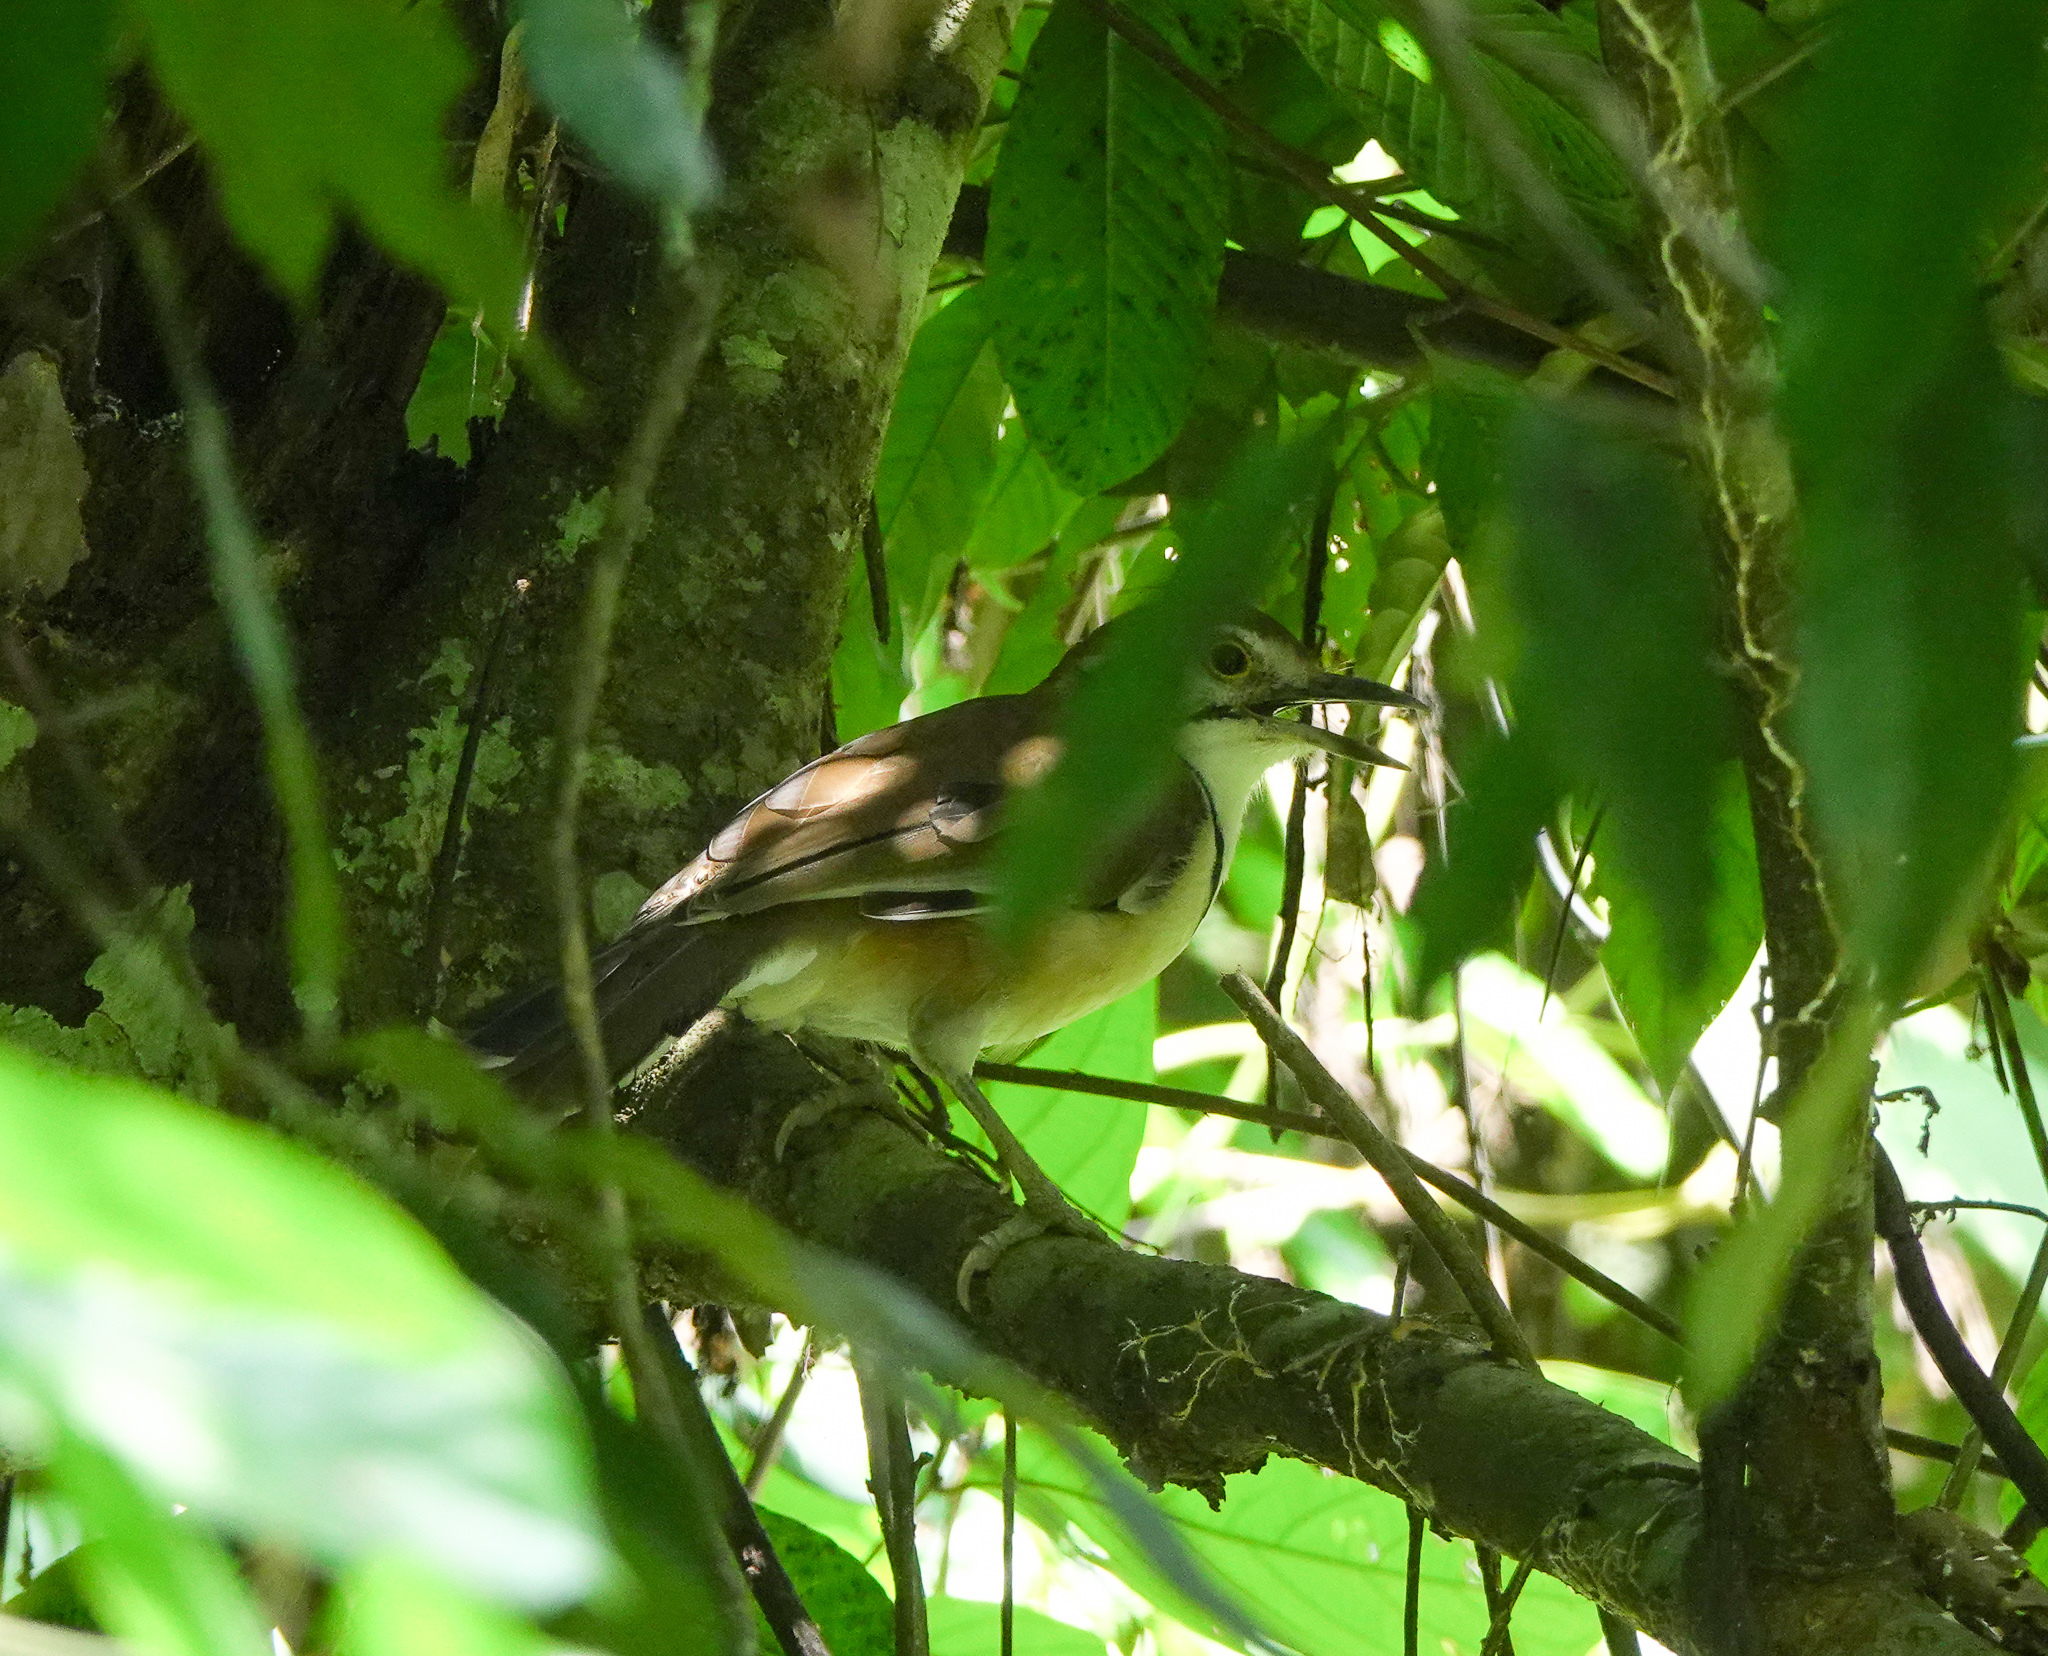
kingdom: Animalia
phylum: Chordata
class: Aves
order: Passeriformes
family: Leiothrichidae
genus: Garrulax
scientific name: Garrulax pectoralis
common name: Greater necklaced laughingthrush
